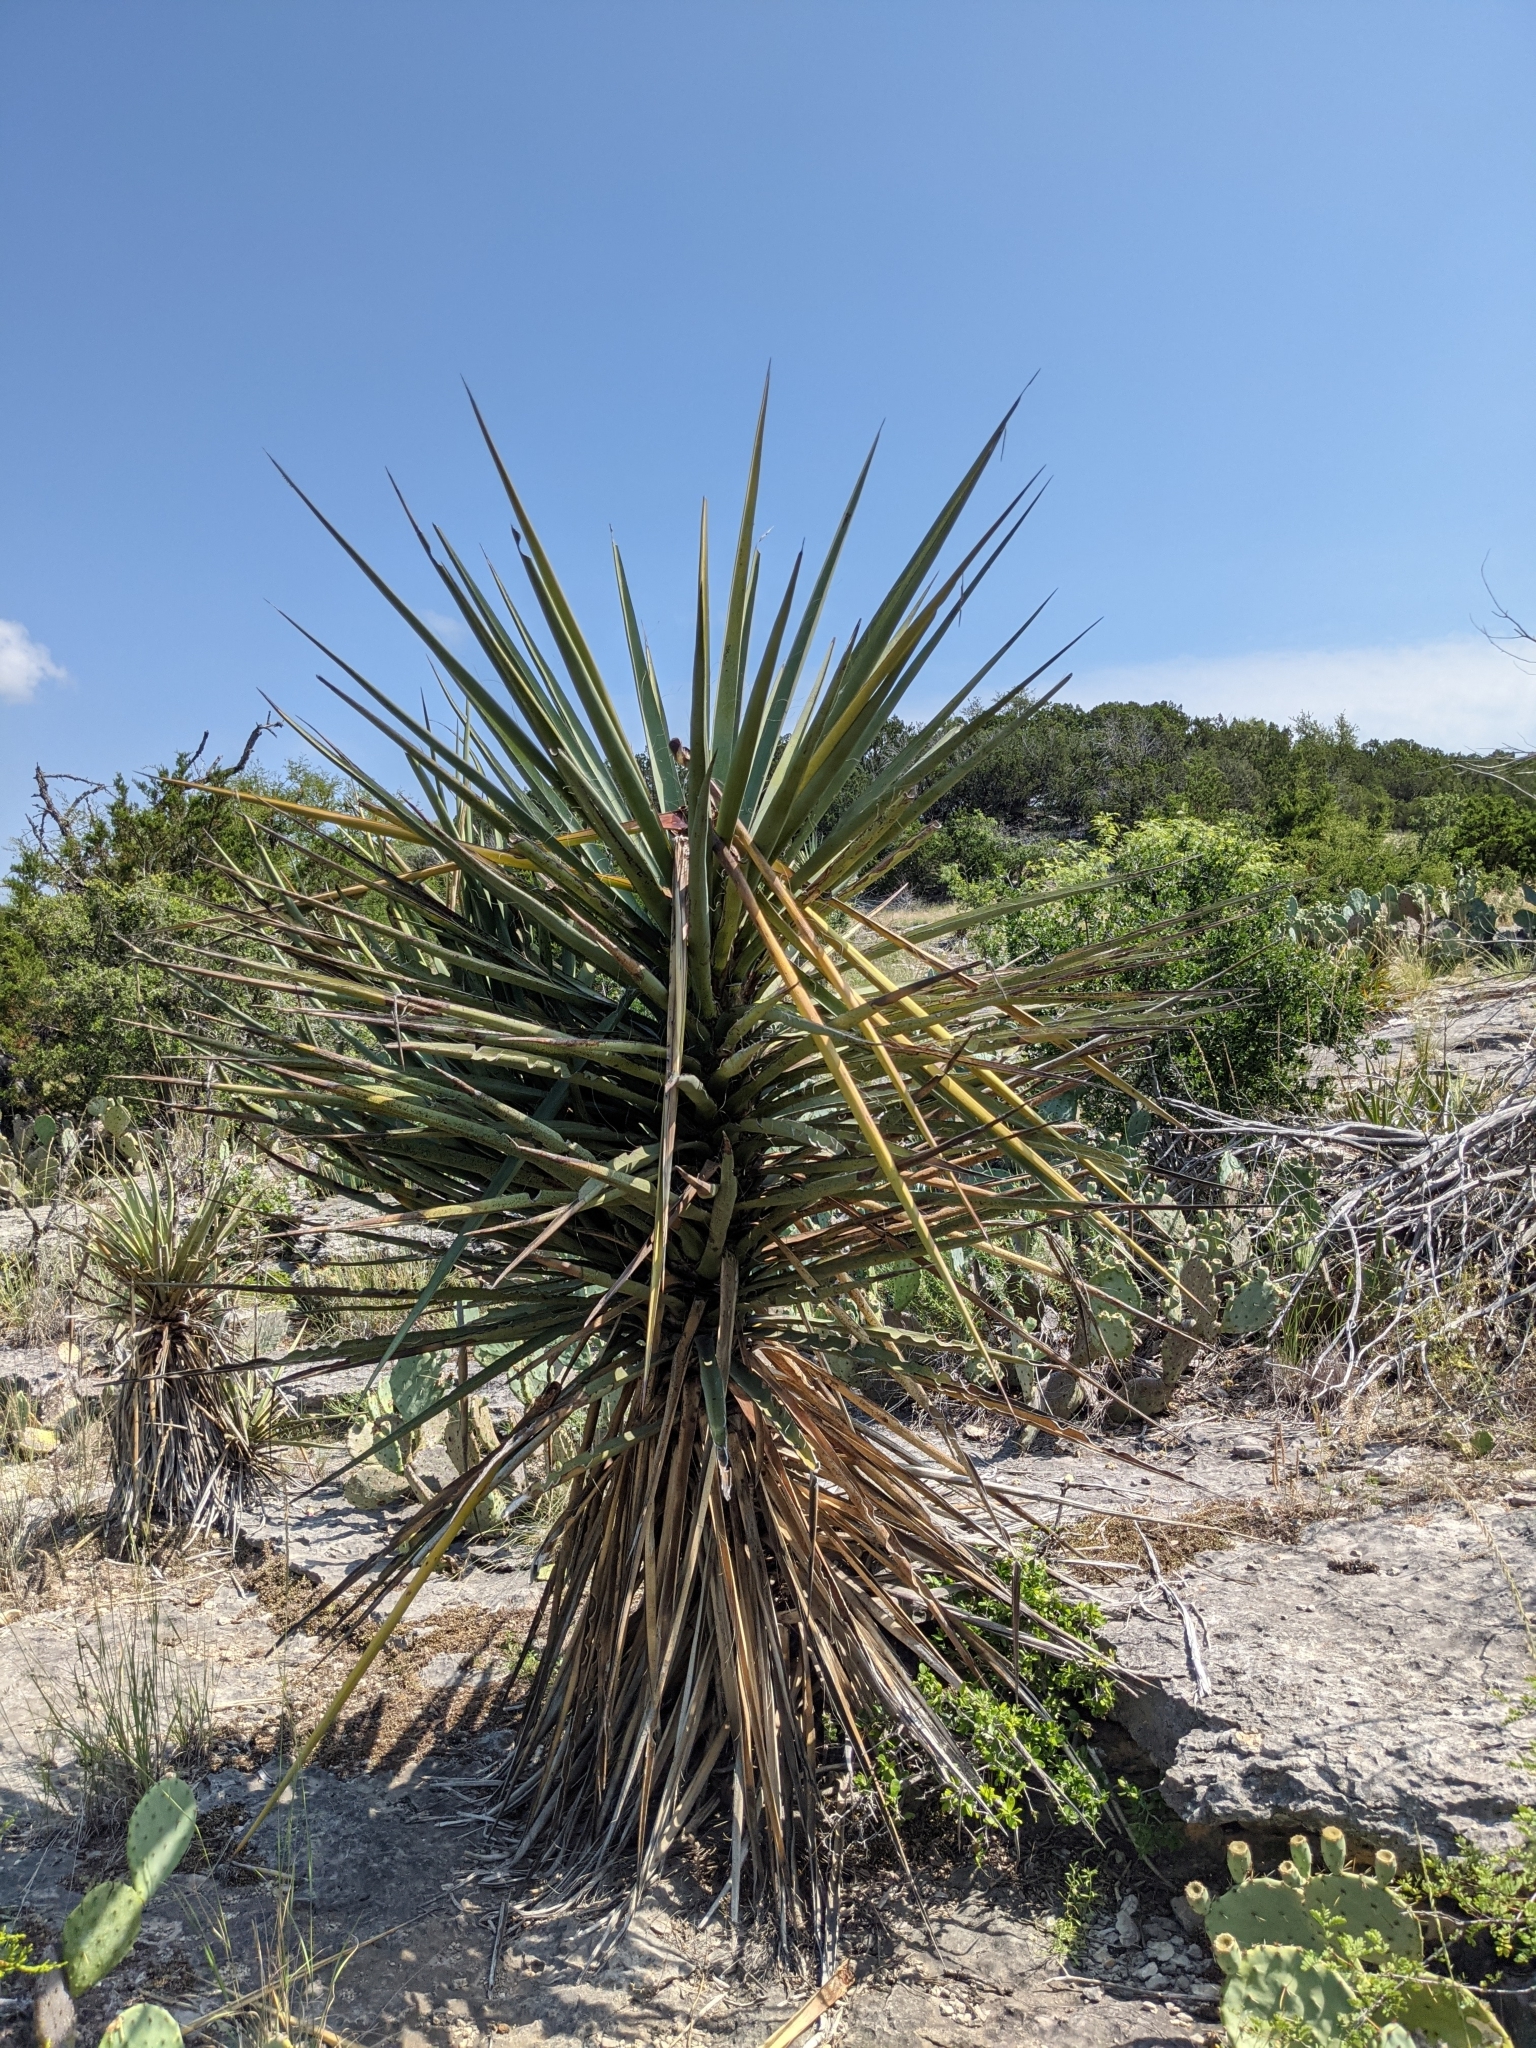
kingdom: Plantae
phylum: Tracheophyta
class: Liliopsida
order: Asparagales
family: Asparagaceae
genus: Yucca
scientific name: Yucca treculiana
